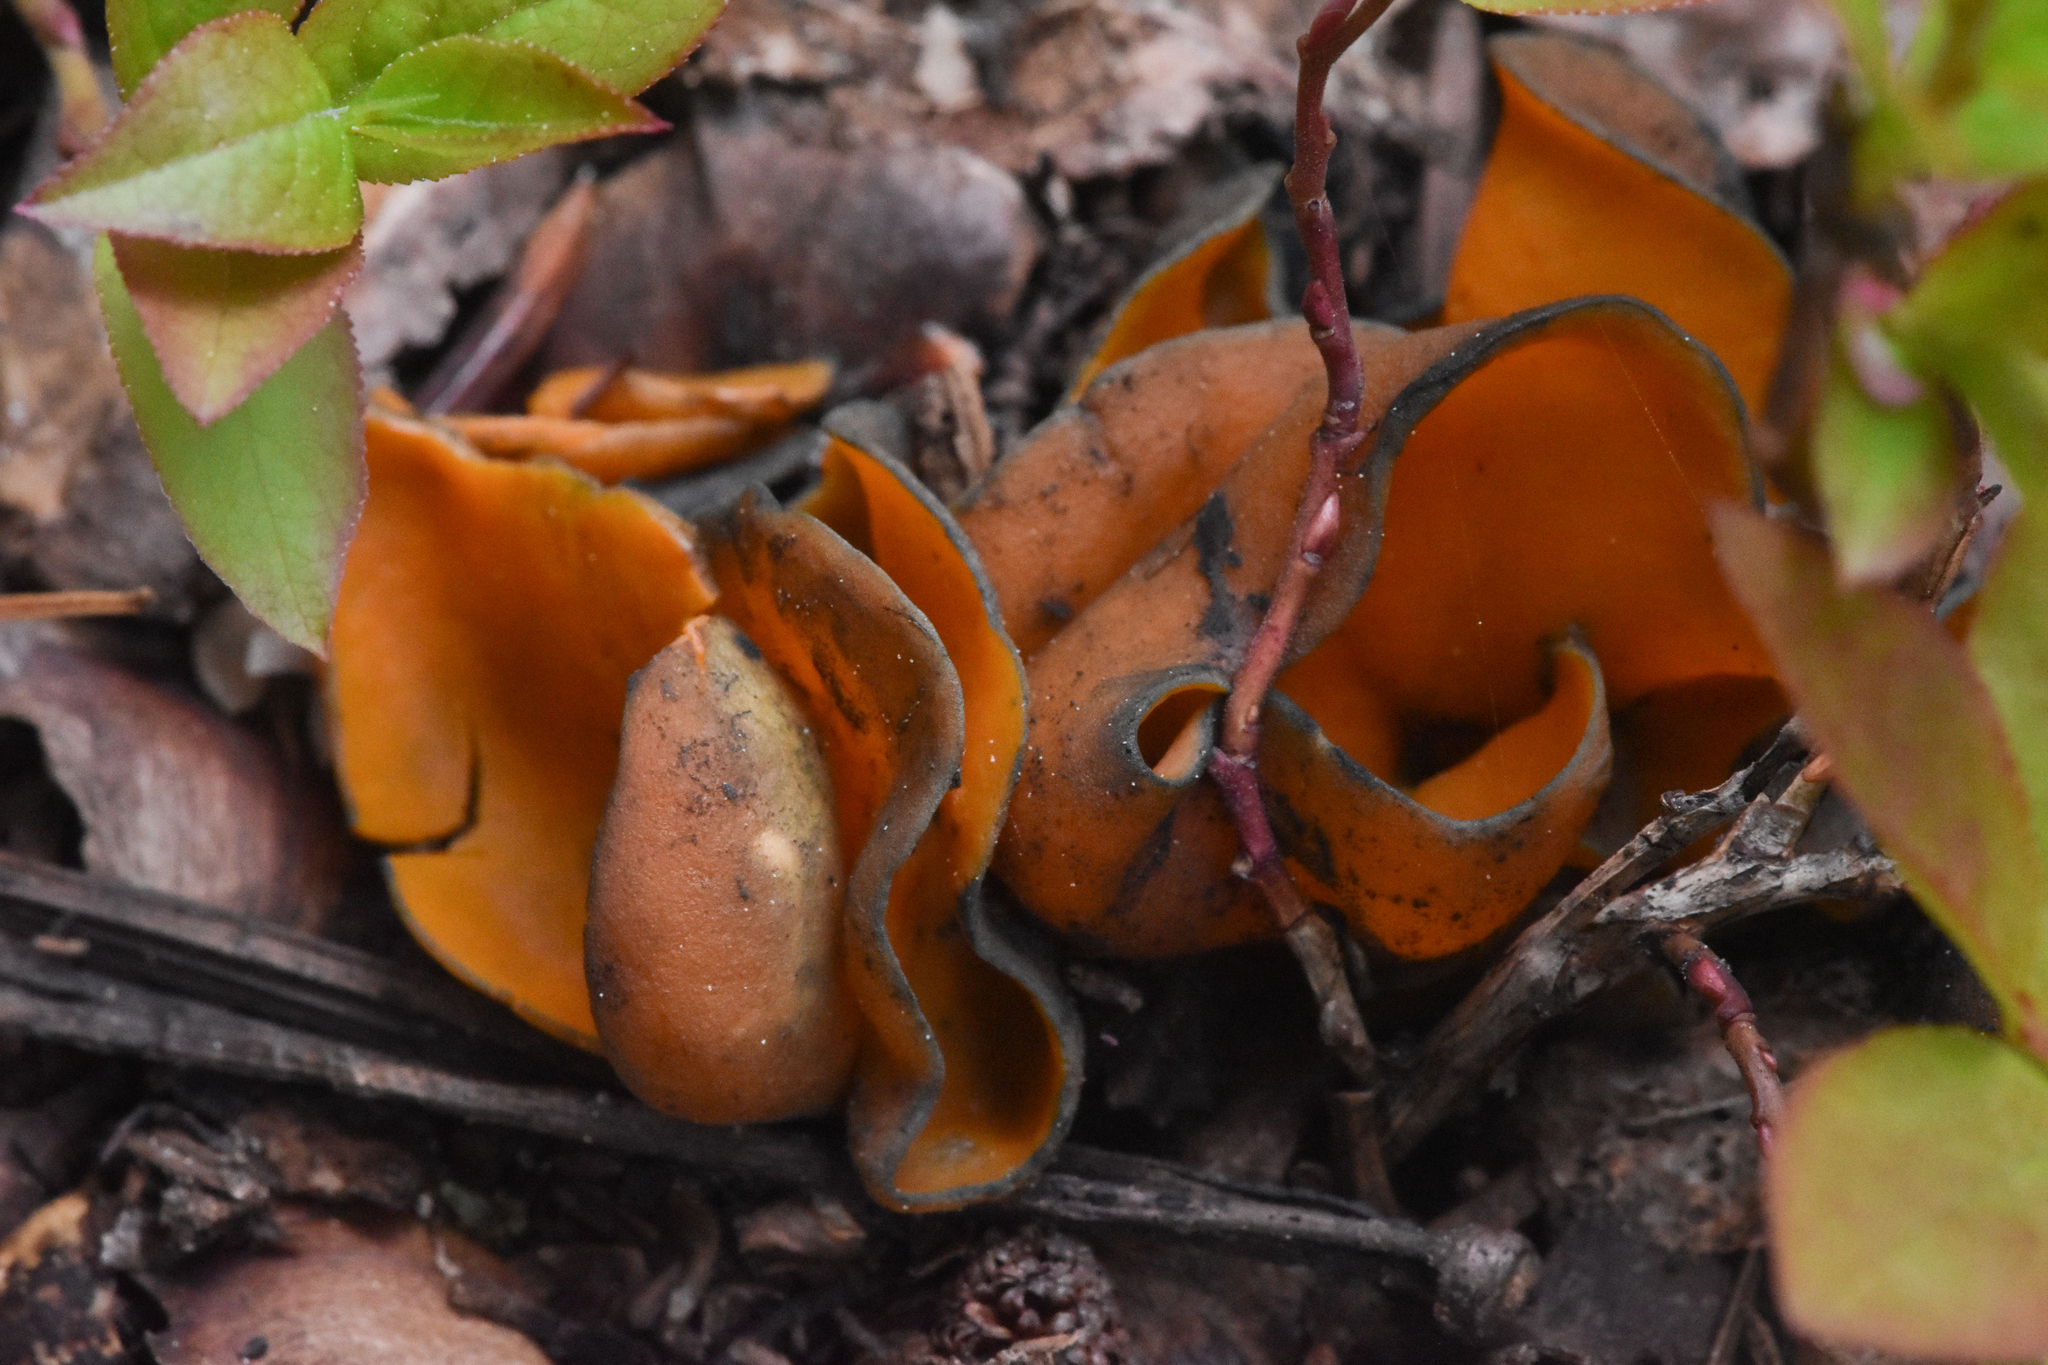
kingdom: Fungi
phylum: Ascomycota
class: Pezizomycetes
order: Pezizales
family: Caloscyphaceae
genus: Caloscypha
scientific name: Caloscypha fulgens
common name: Golden cup
